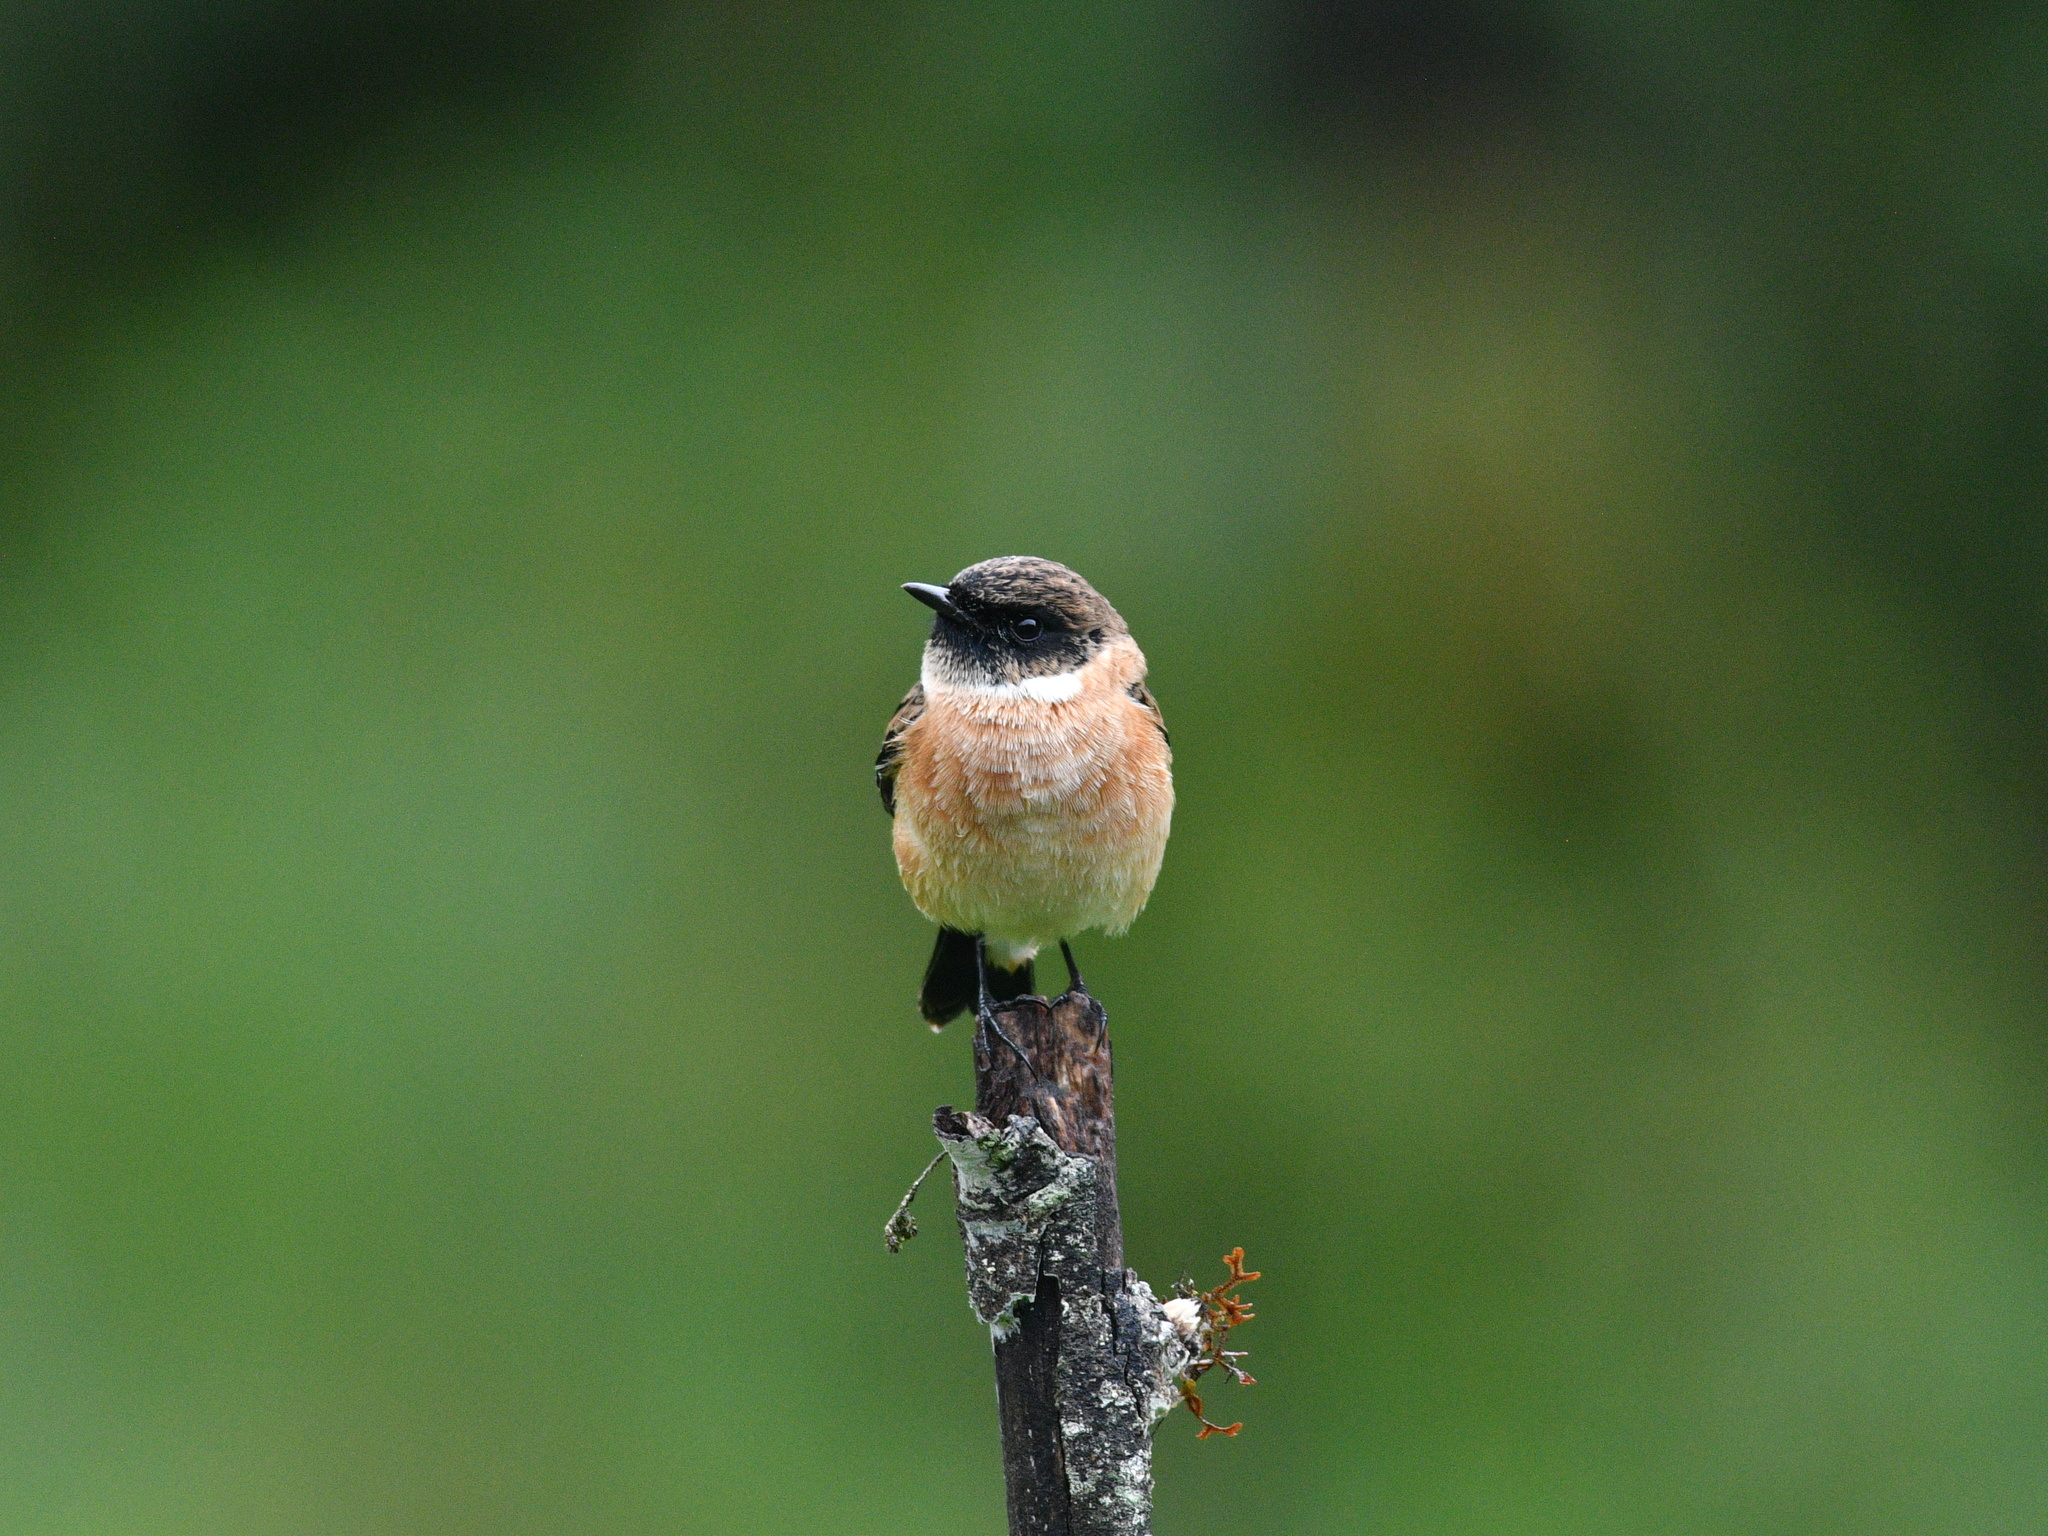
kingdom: Animalia
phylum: Chordata
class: Aves
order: Passeriformes
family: Muscicapidae
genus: Saxicola
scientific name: Saxicola stejnegeri
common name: Stejneger's stonechat
